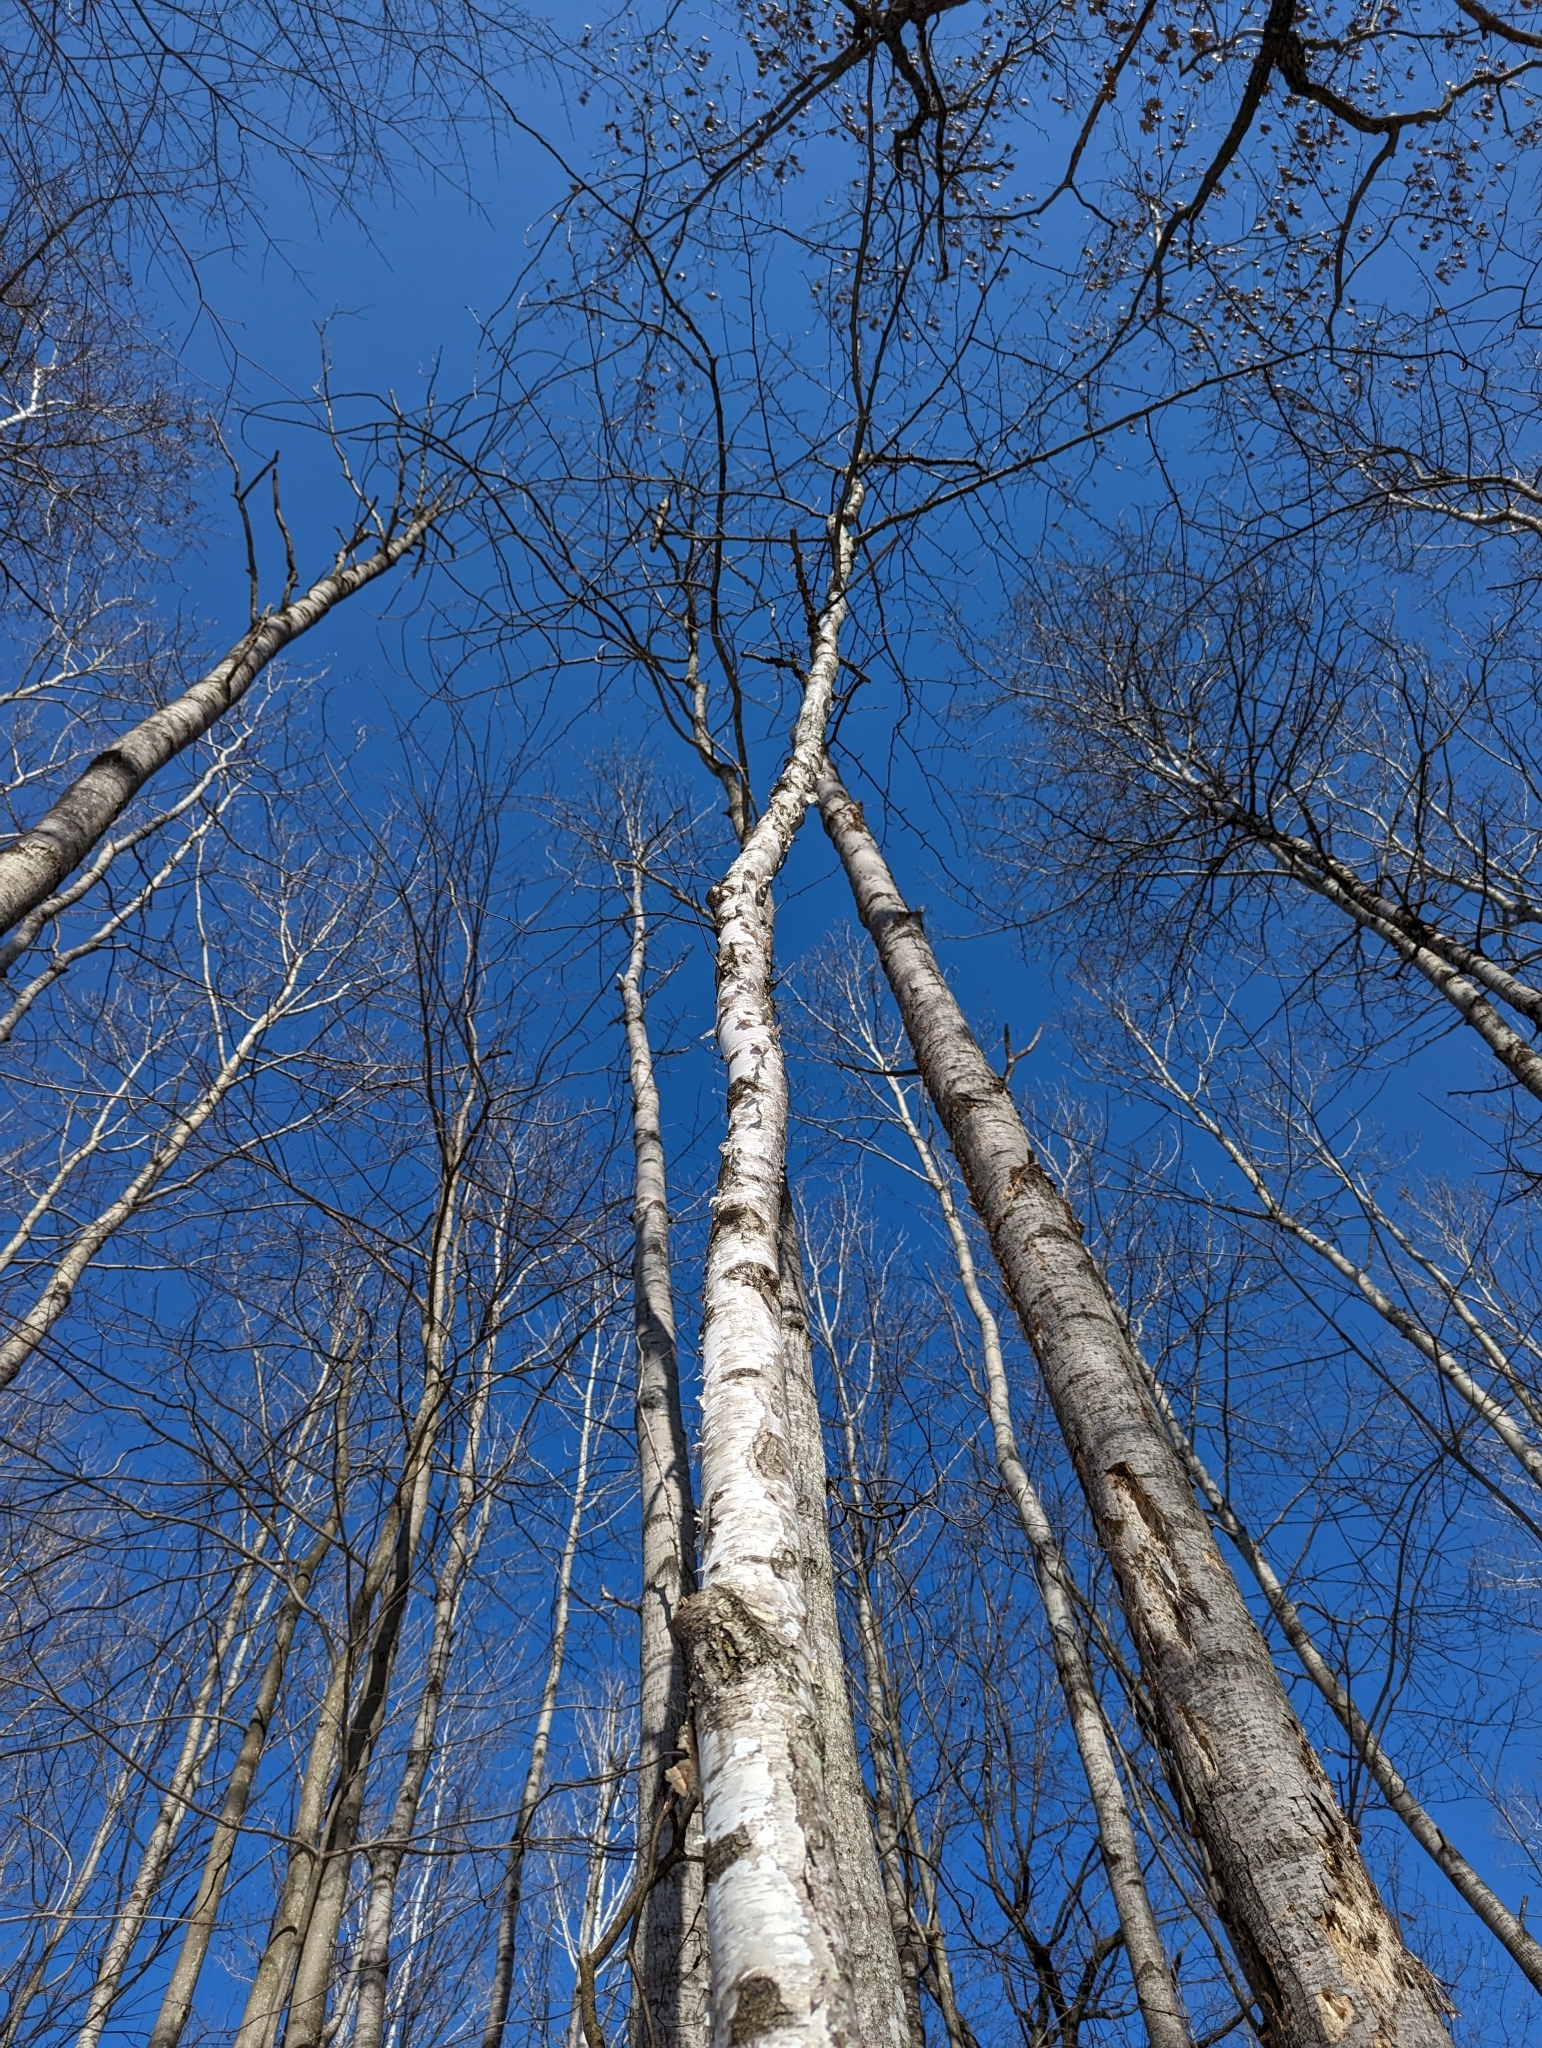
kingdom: Plantae
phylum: Tracheophyta
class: Magnoliopsida
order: Fagales
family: Betulaceae
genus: Betula
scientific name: Betula papyrifera
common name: Paper birch
